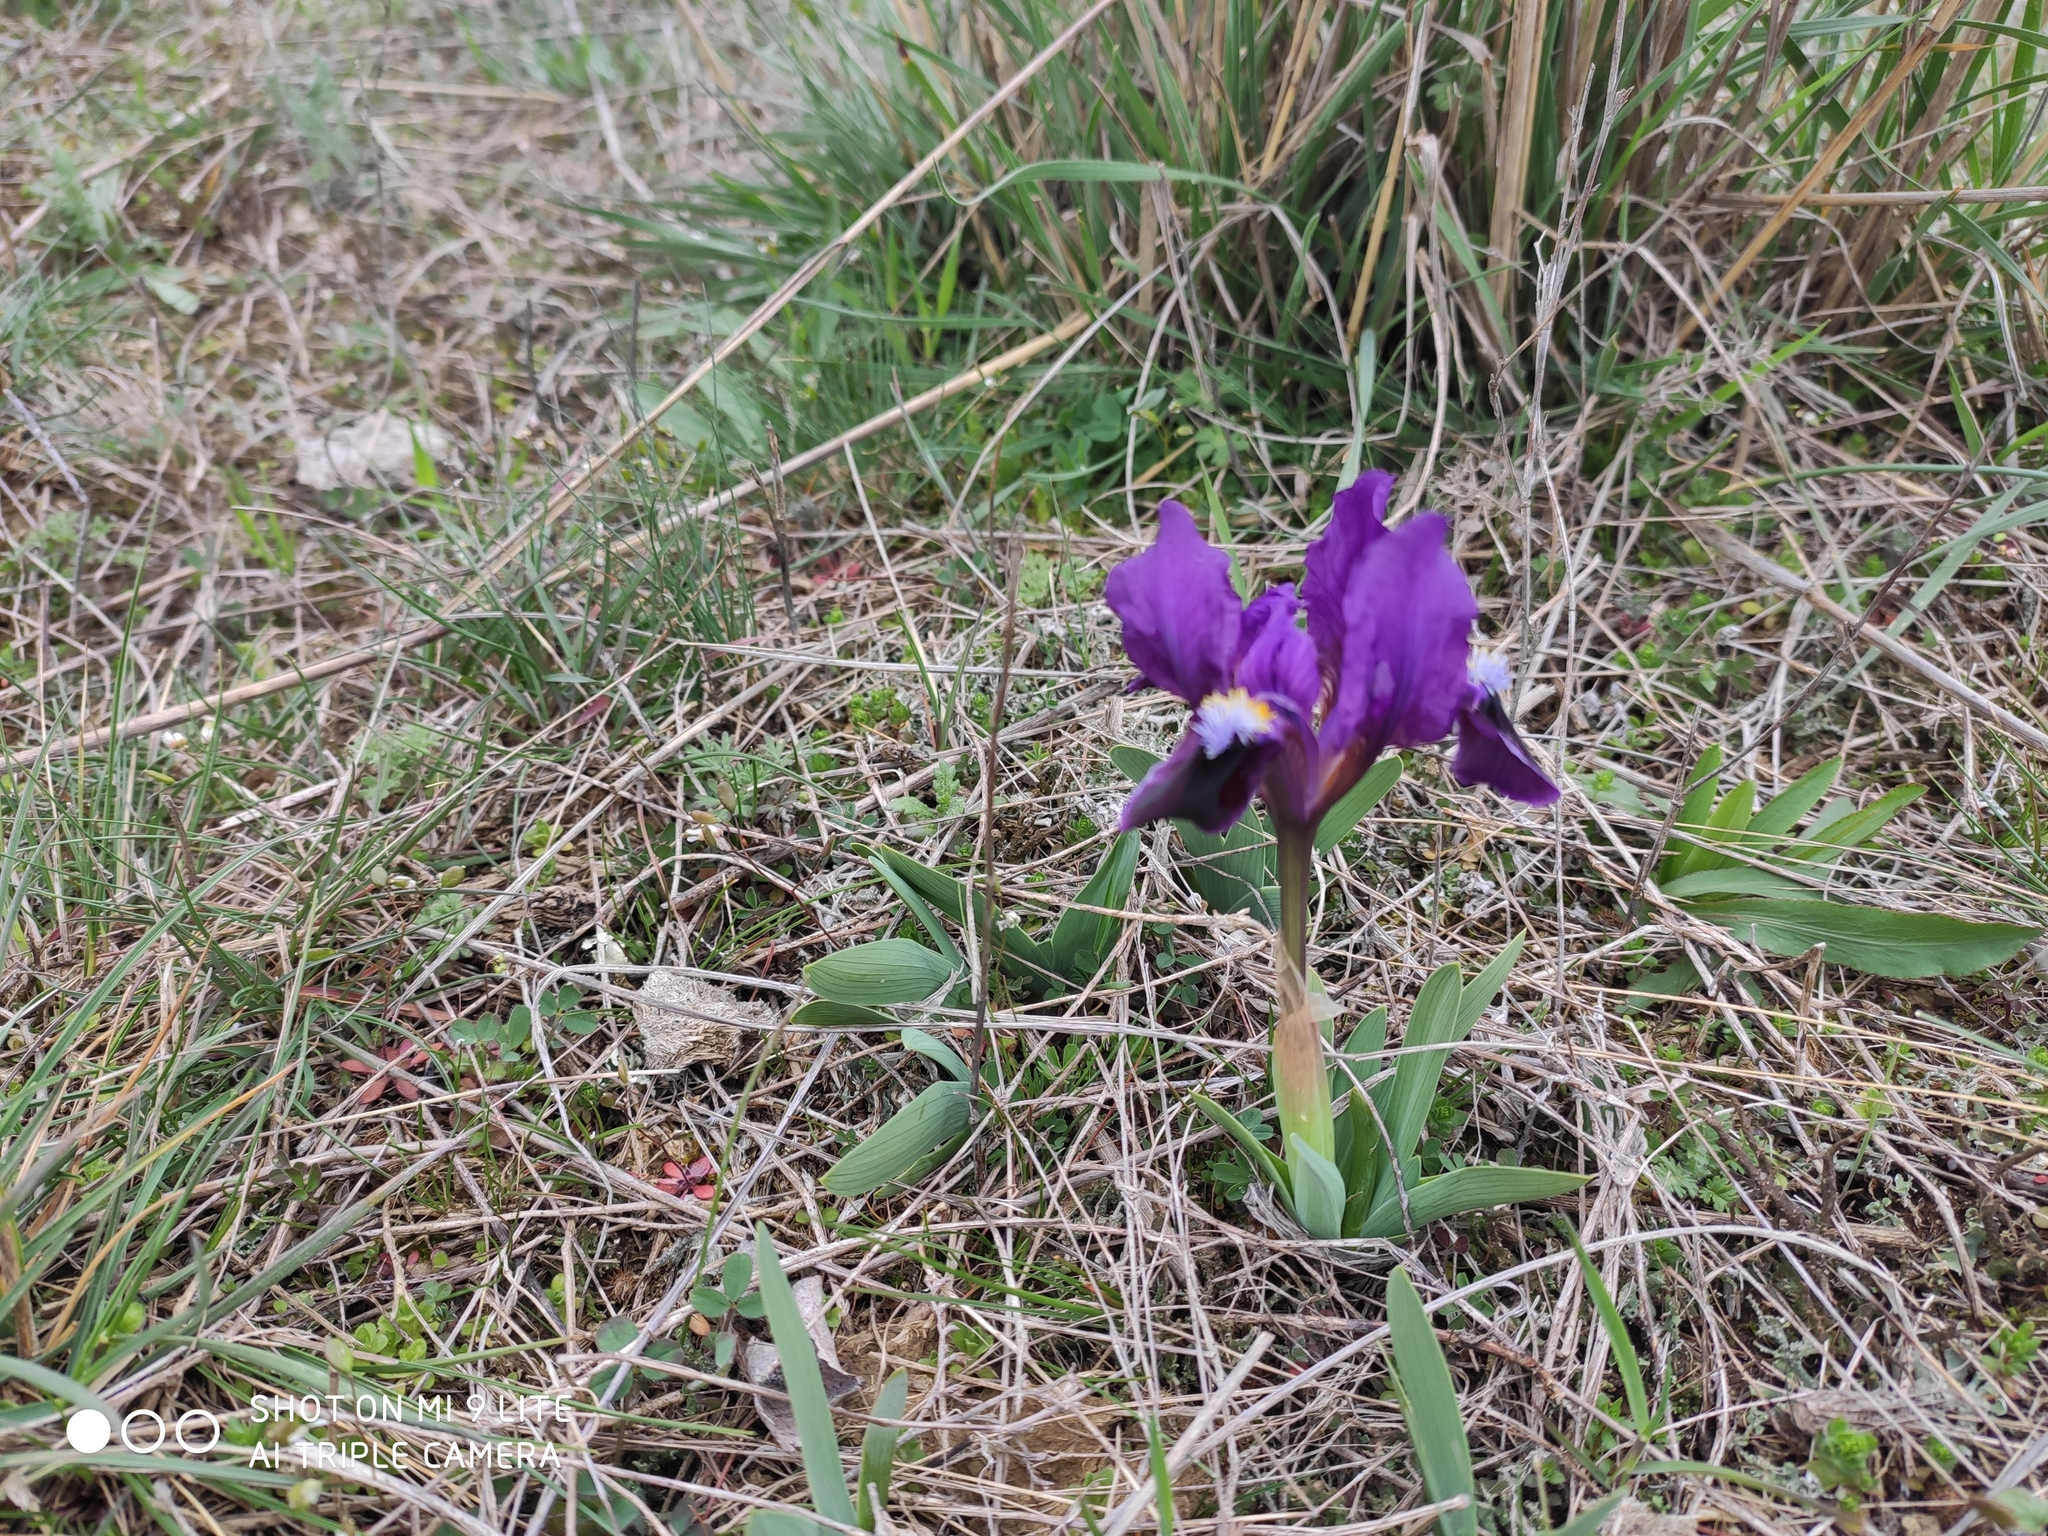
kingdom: Plantae
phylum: Tracheophyta
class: Liliopsida
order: Asparagales
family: Iridaceae
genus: Iris
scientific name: Iris pumila
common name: Dwarf iris
